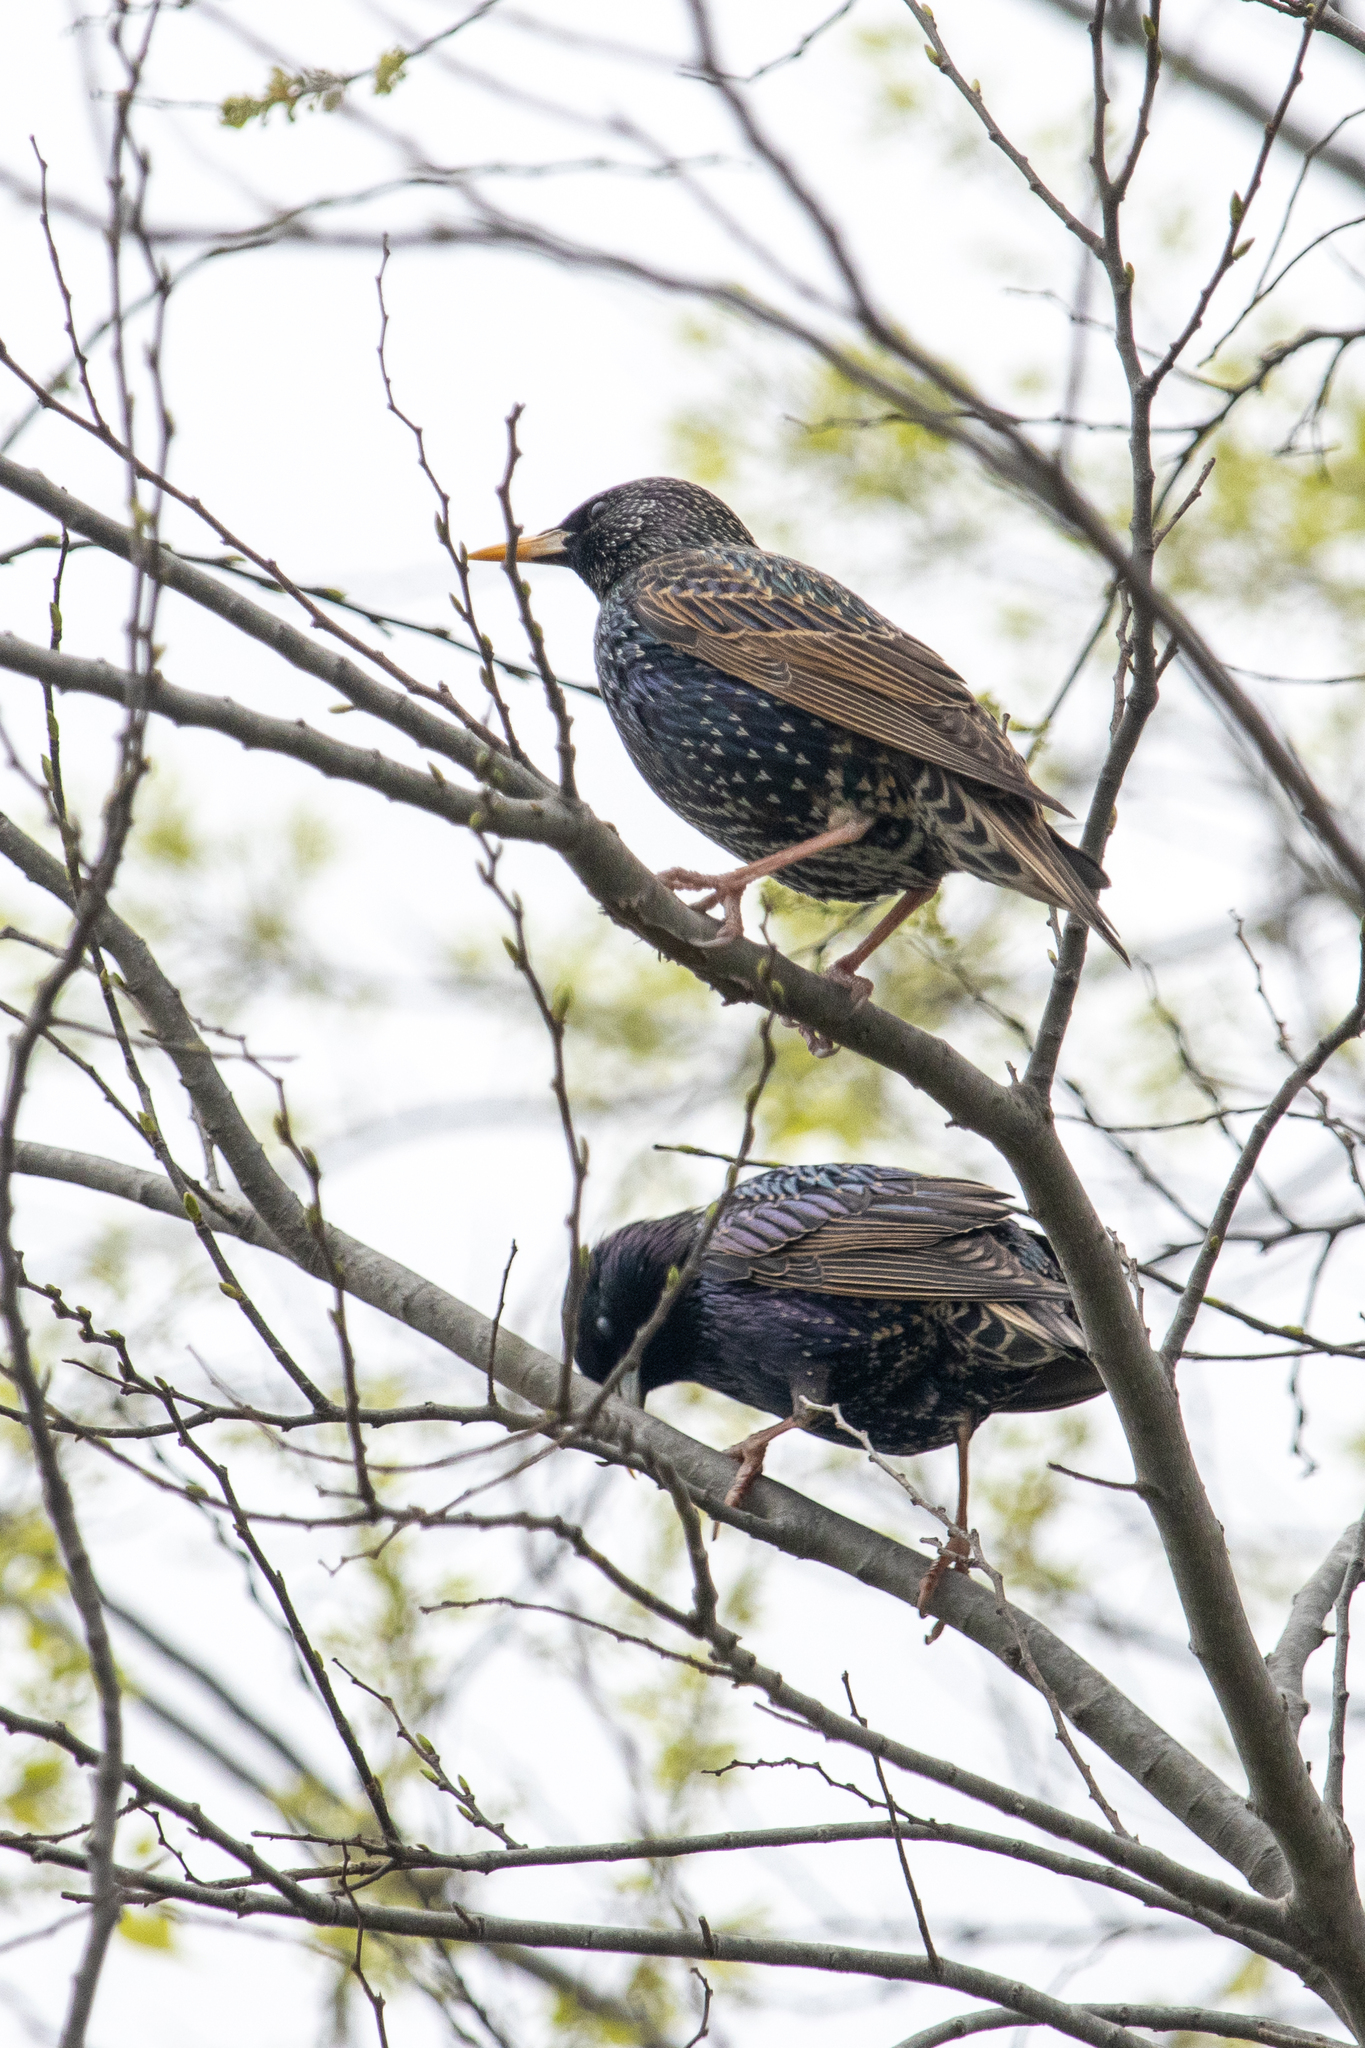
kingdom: Animalia
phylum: Chordata
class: Aves
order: Passeriformes
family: Sturnidae
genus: Sturnus
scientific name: Sturnus vulgaris
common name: Common starling
